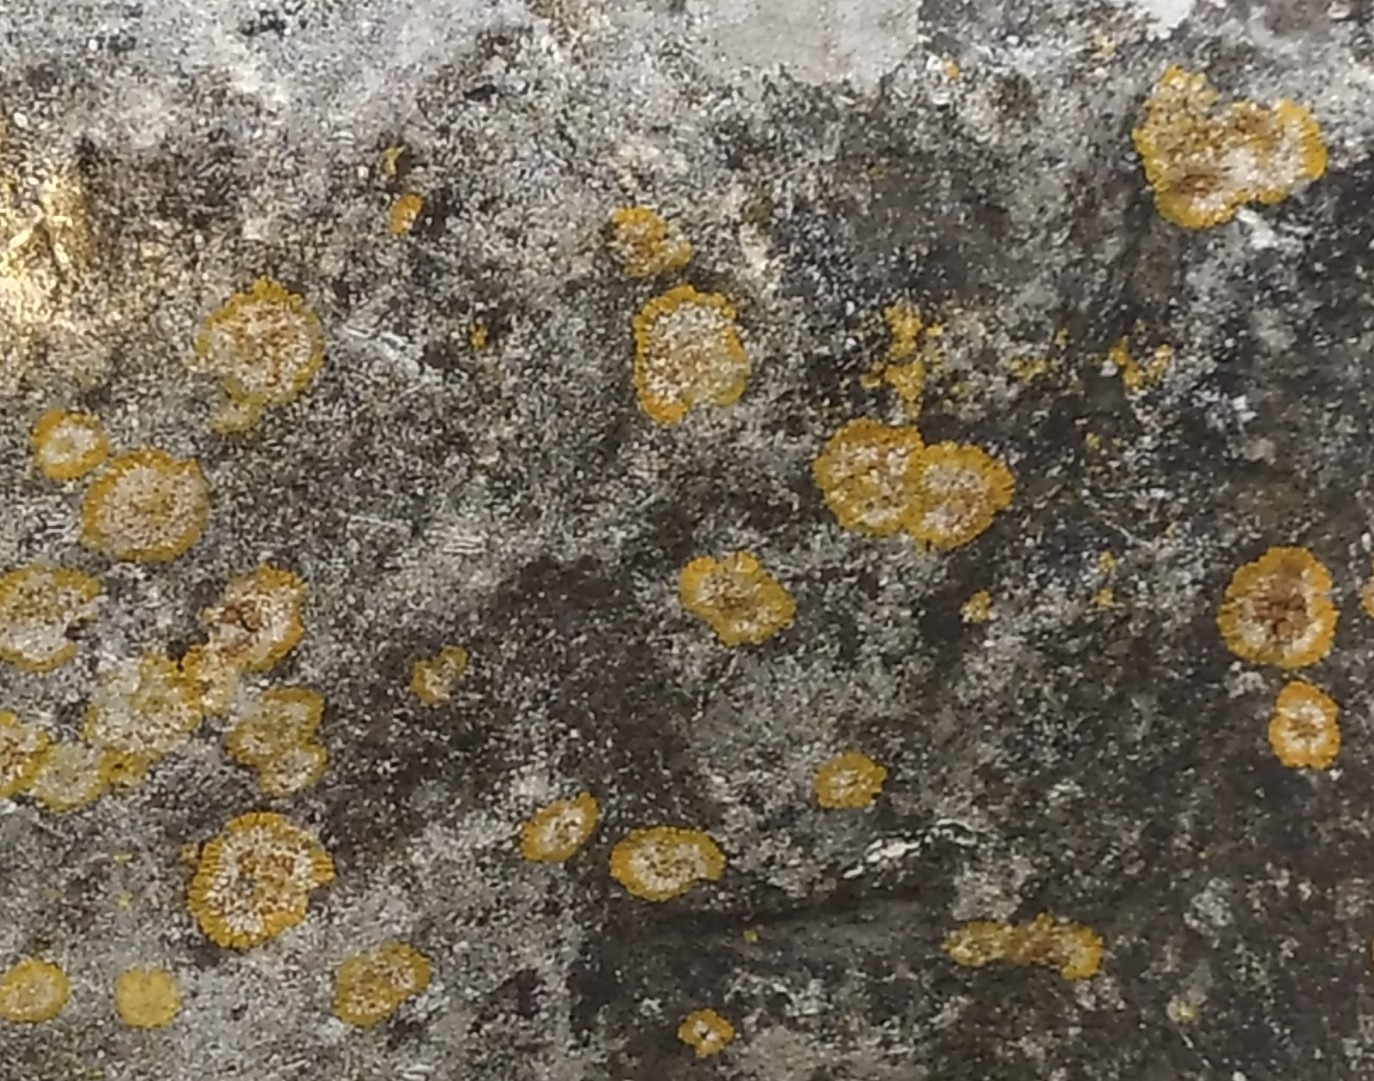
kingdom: Fungi
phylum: Ascomycota
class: Lecanoromycetes
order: Teloschistales
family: Teloschistaceae
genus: Calogaya
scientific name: Calogaya decipiens
